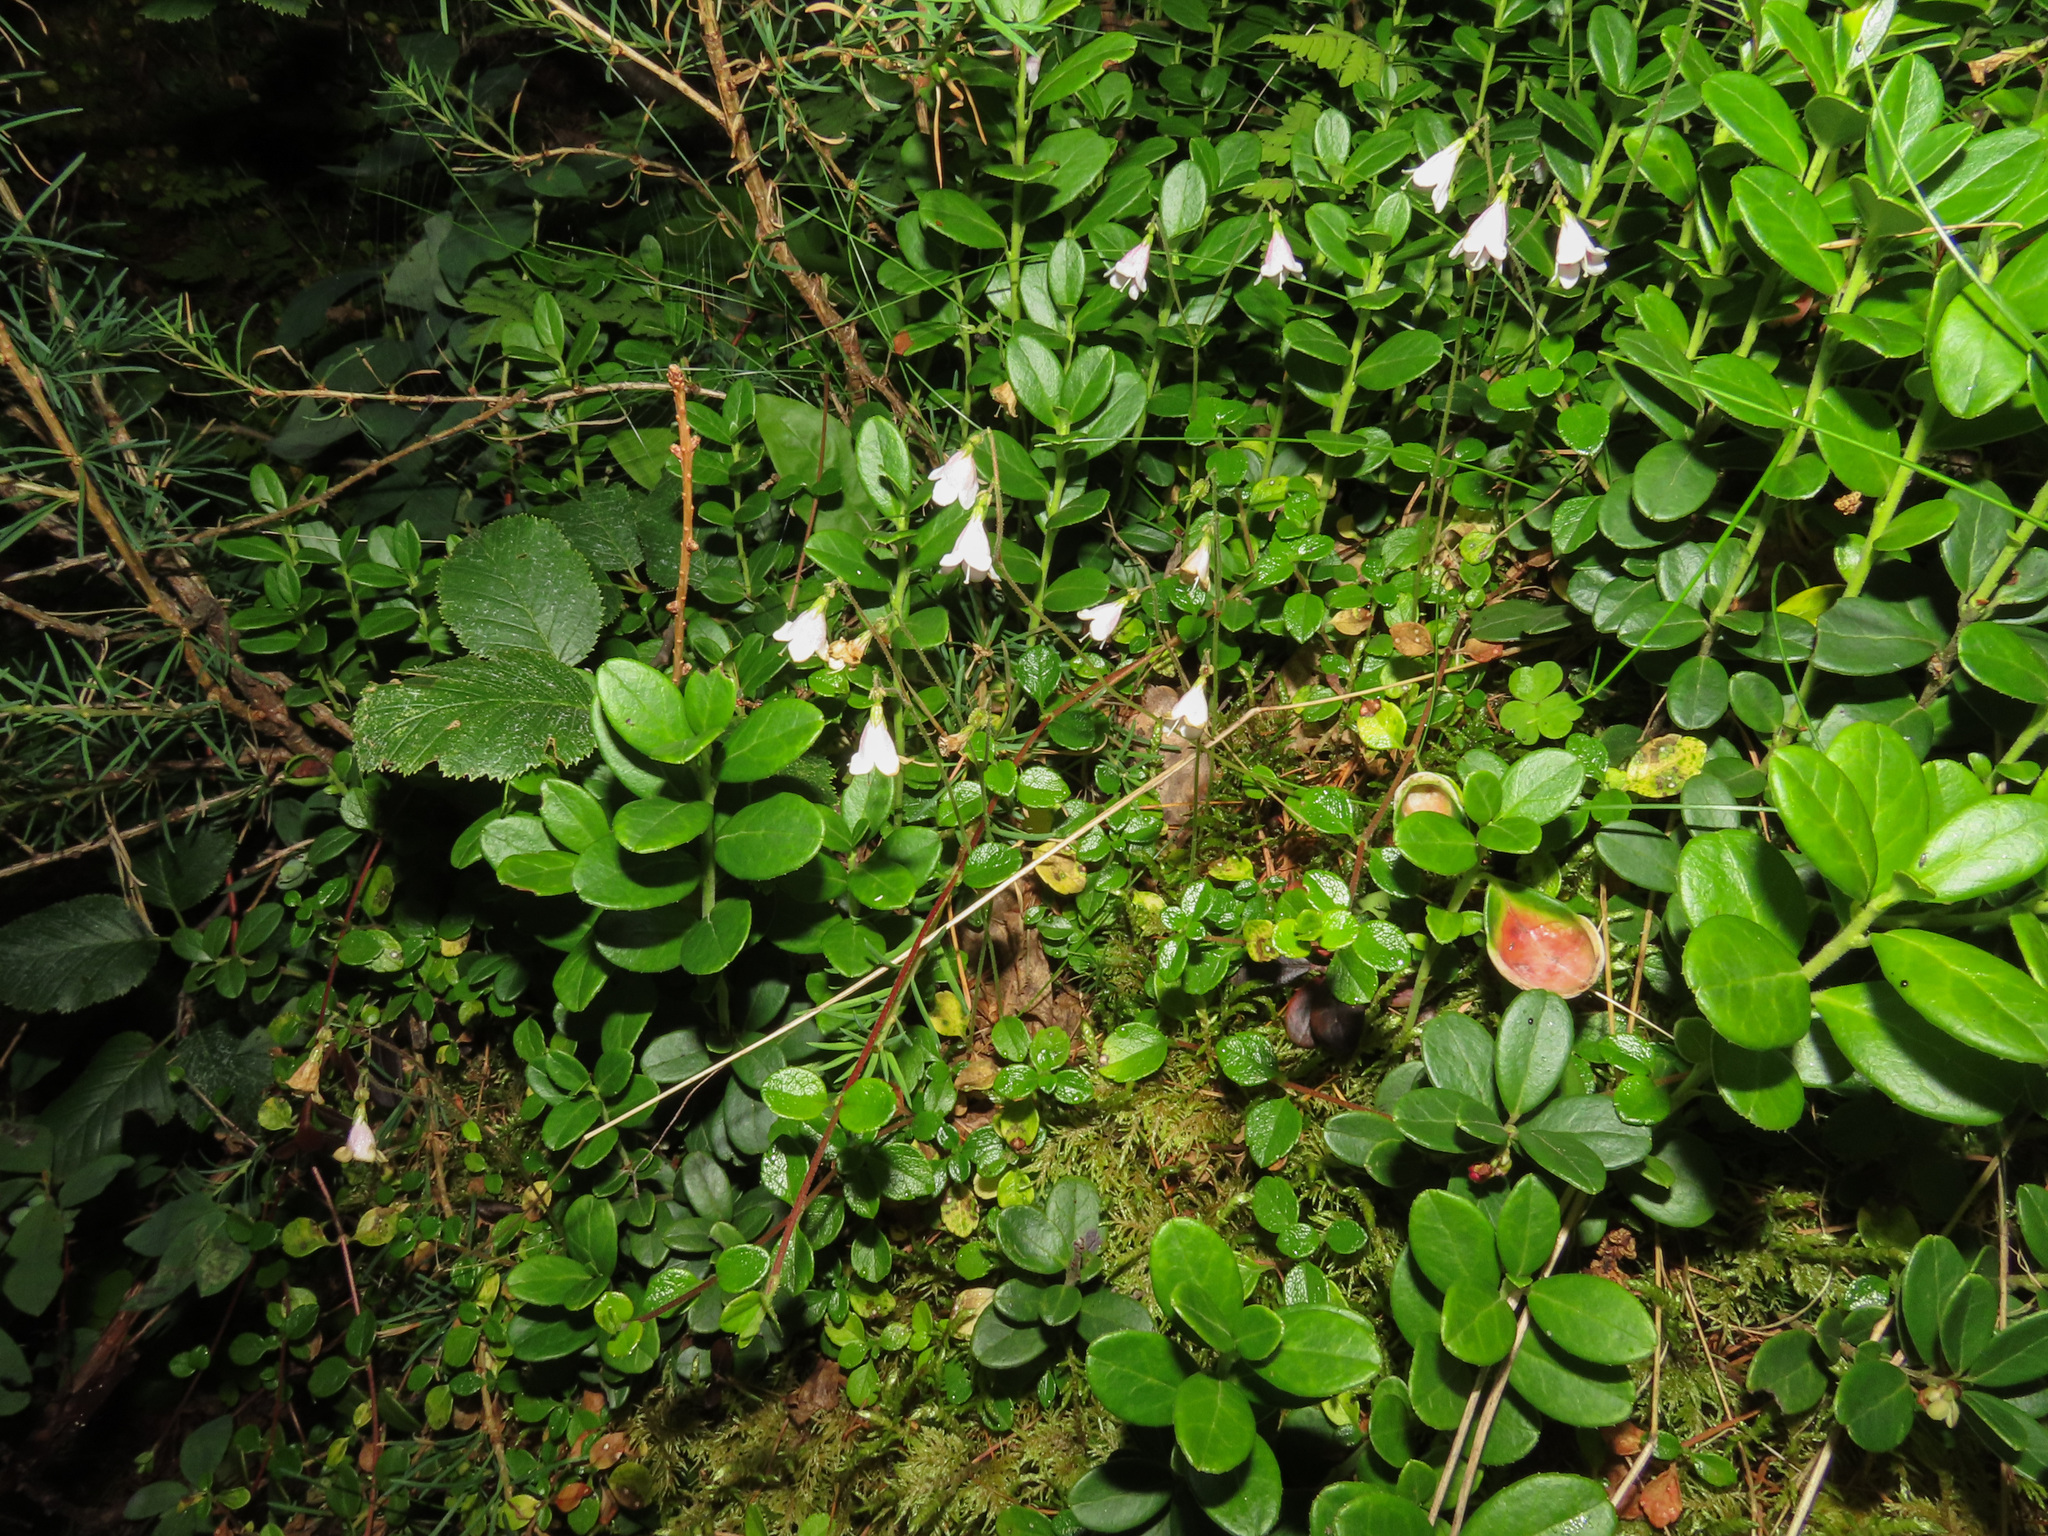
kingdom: Plantae
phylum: Tracheophyta
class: Magnoliopsida
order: Dipsacales
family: Caprifoliaceae
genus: Linnaea
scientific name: Linnaea borealis
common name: Twinflower
